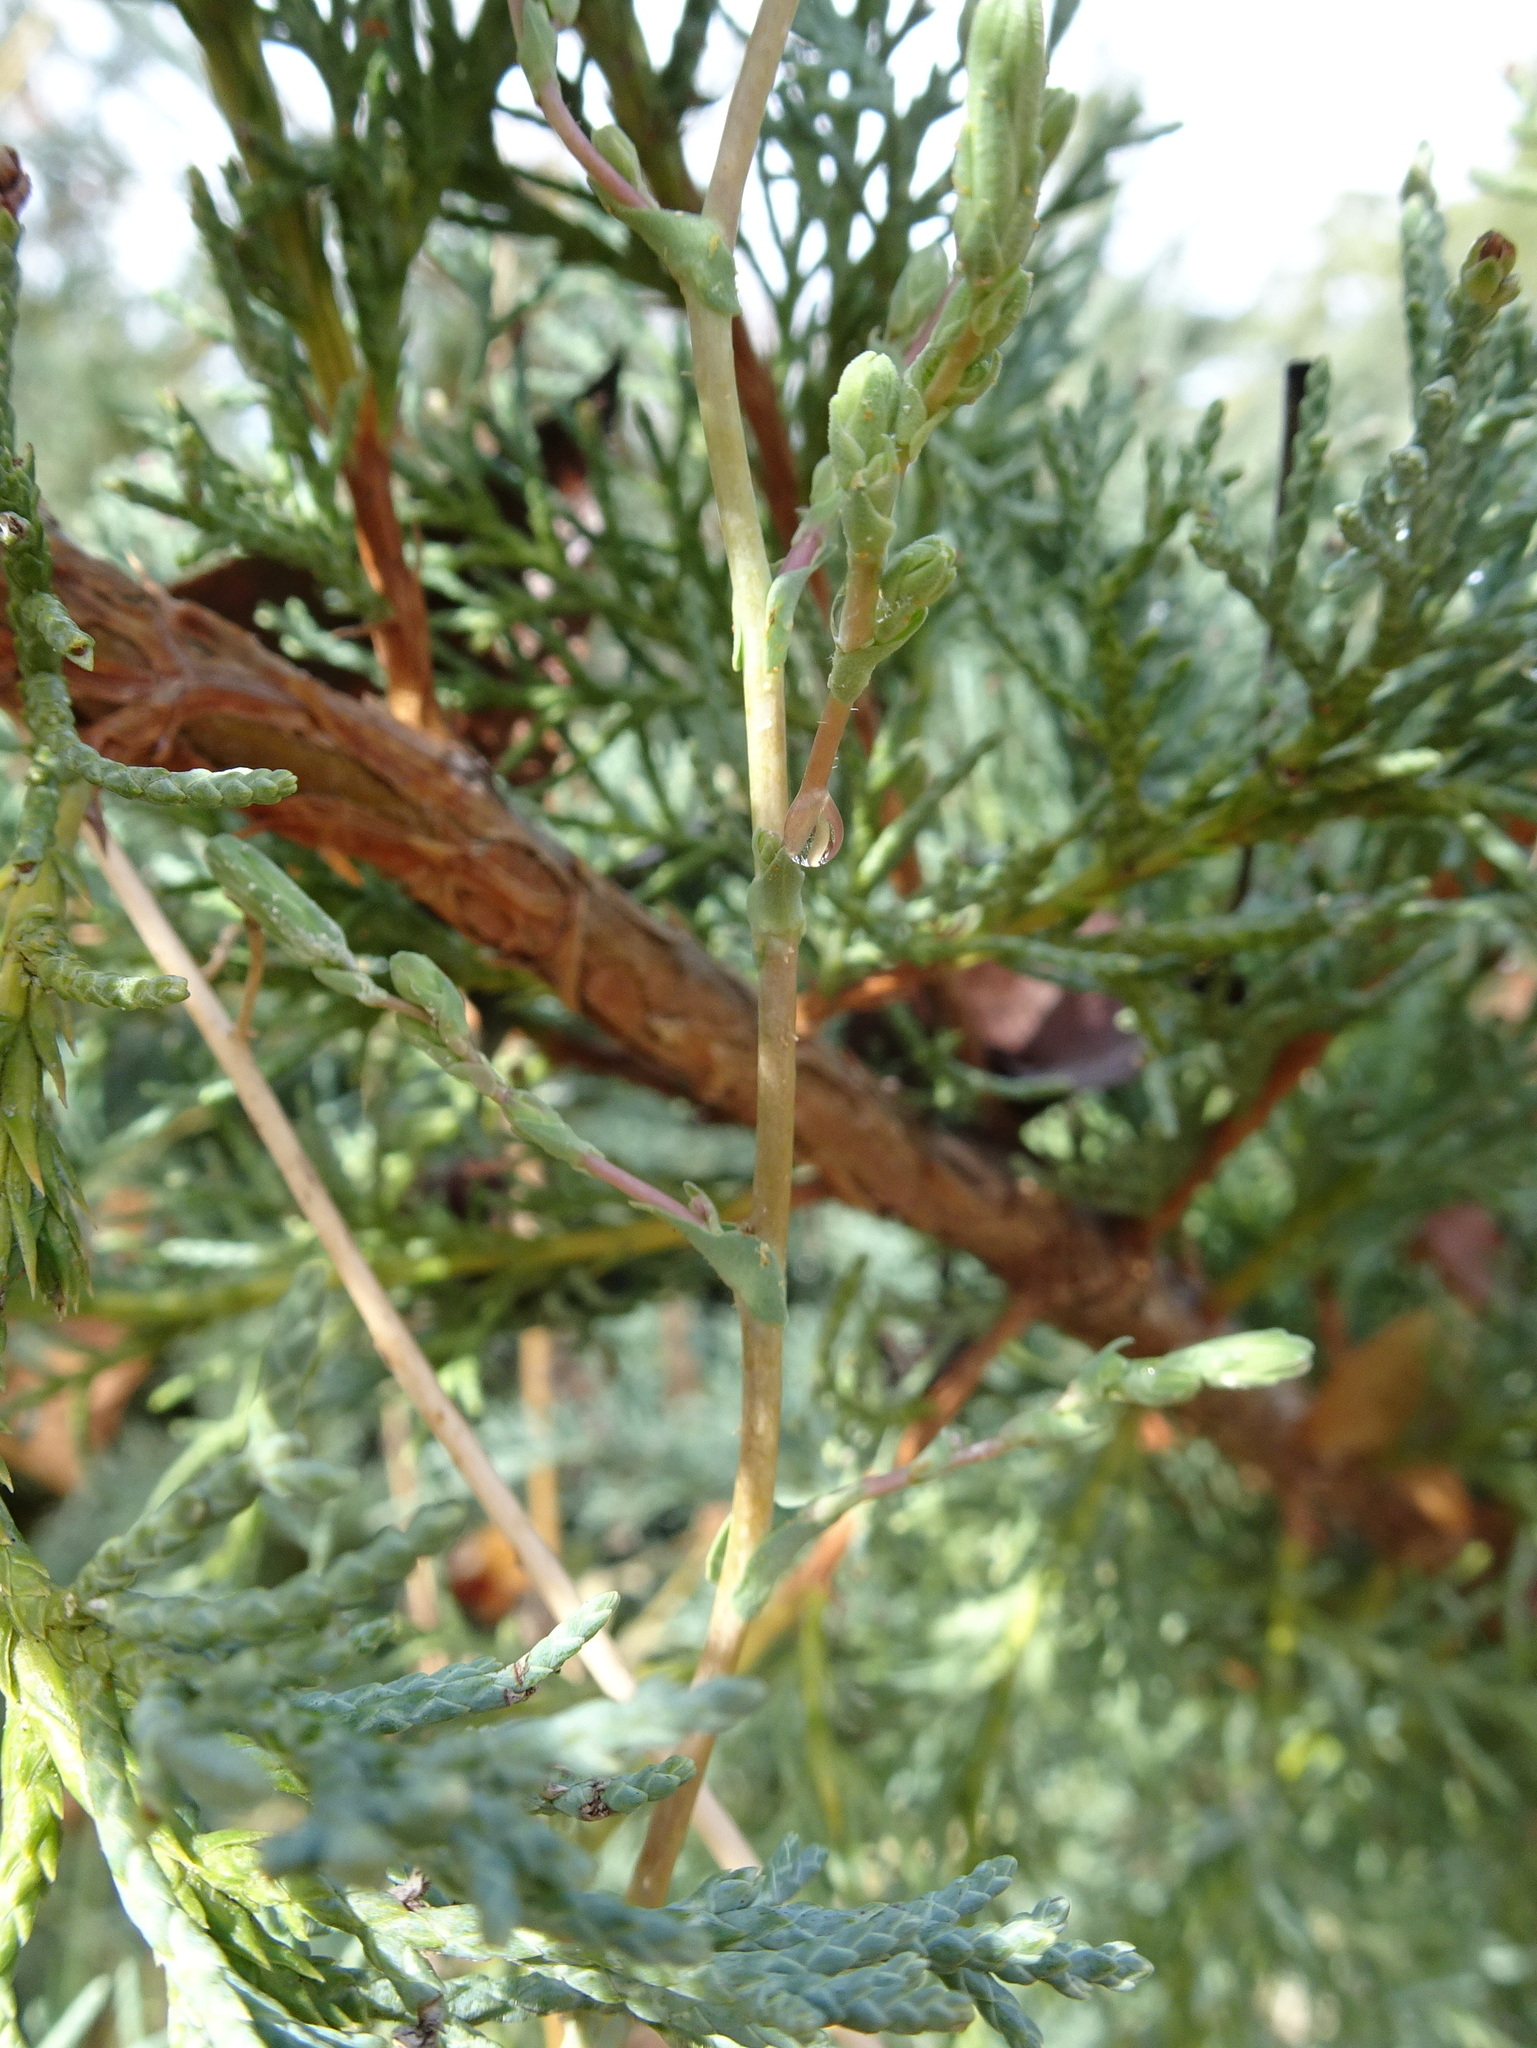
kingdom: Plantae
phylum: Tracheophyta
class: Magnoliopsida
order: Asterales
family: Asteraceae
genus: Lactuca
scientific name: Lactuca serriola
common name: Prickly lettuce
